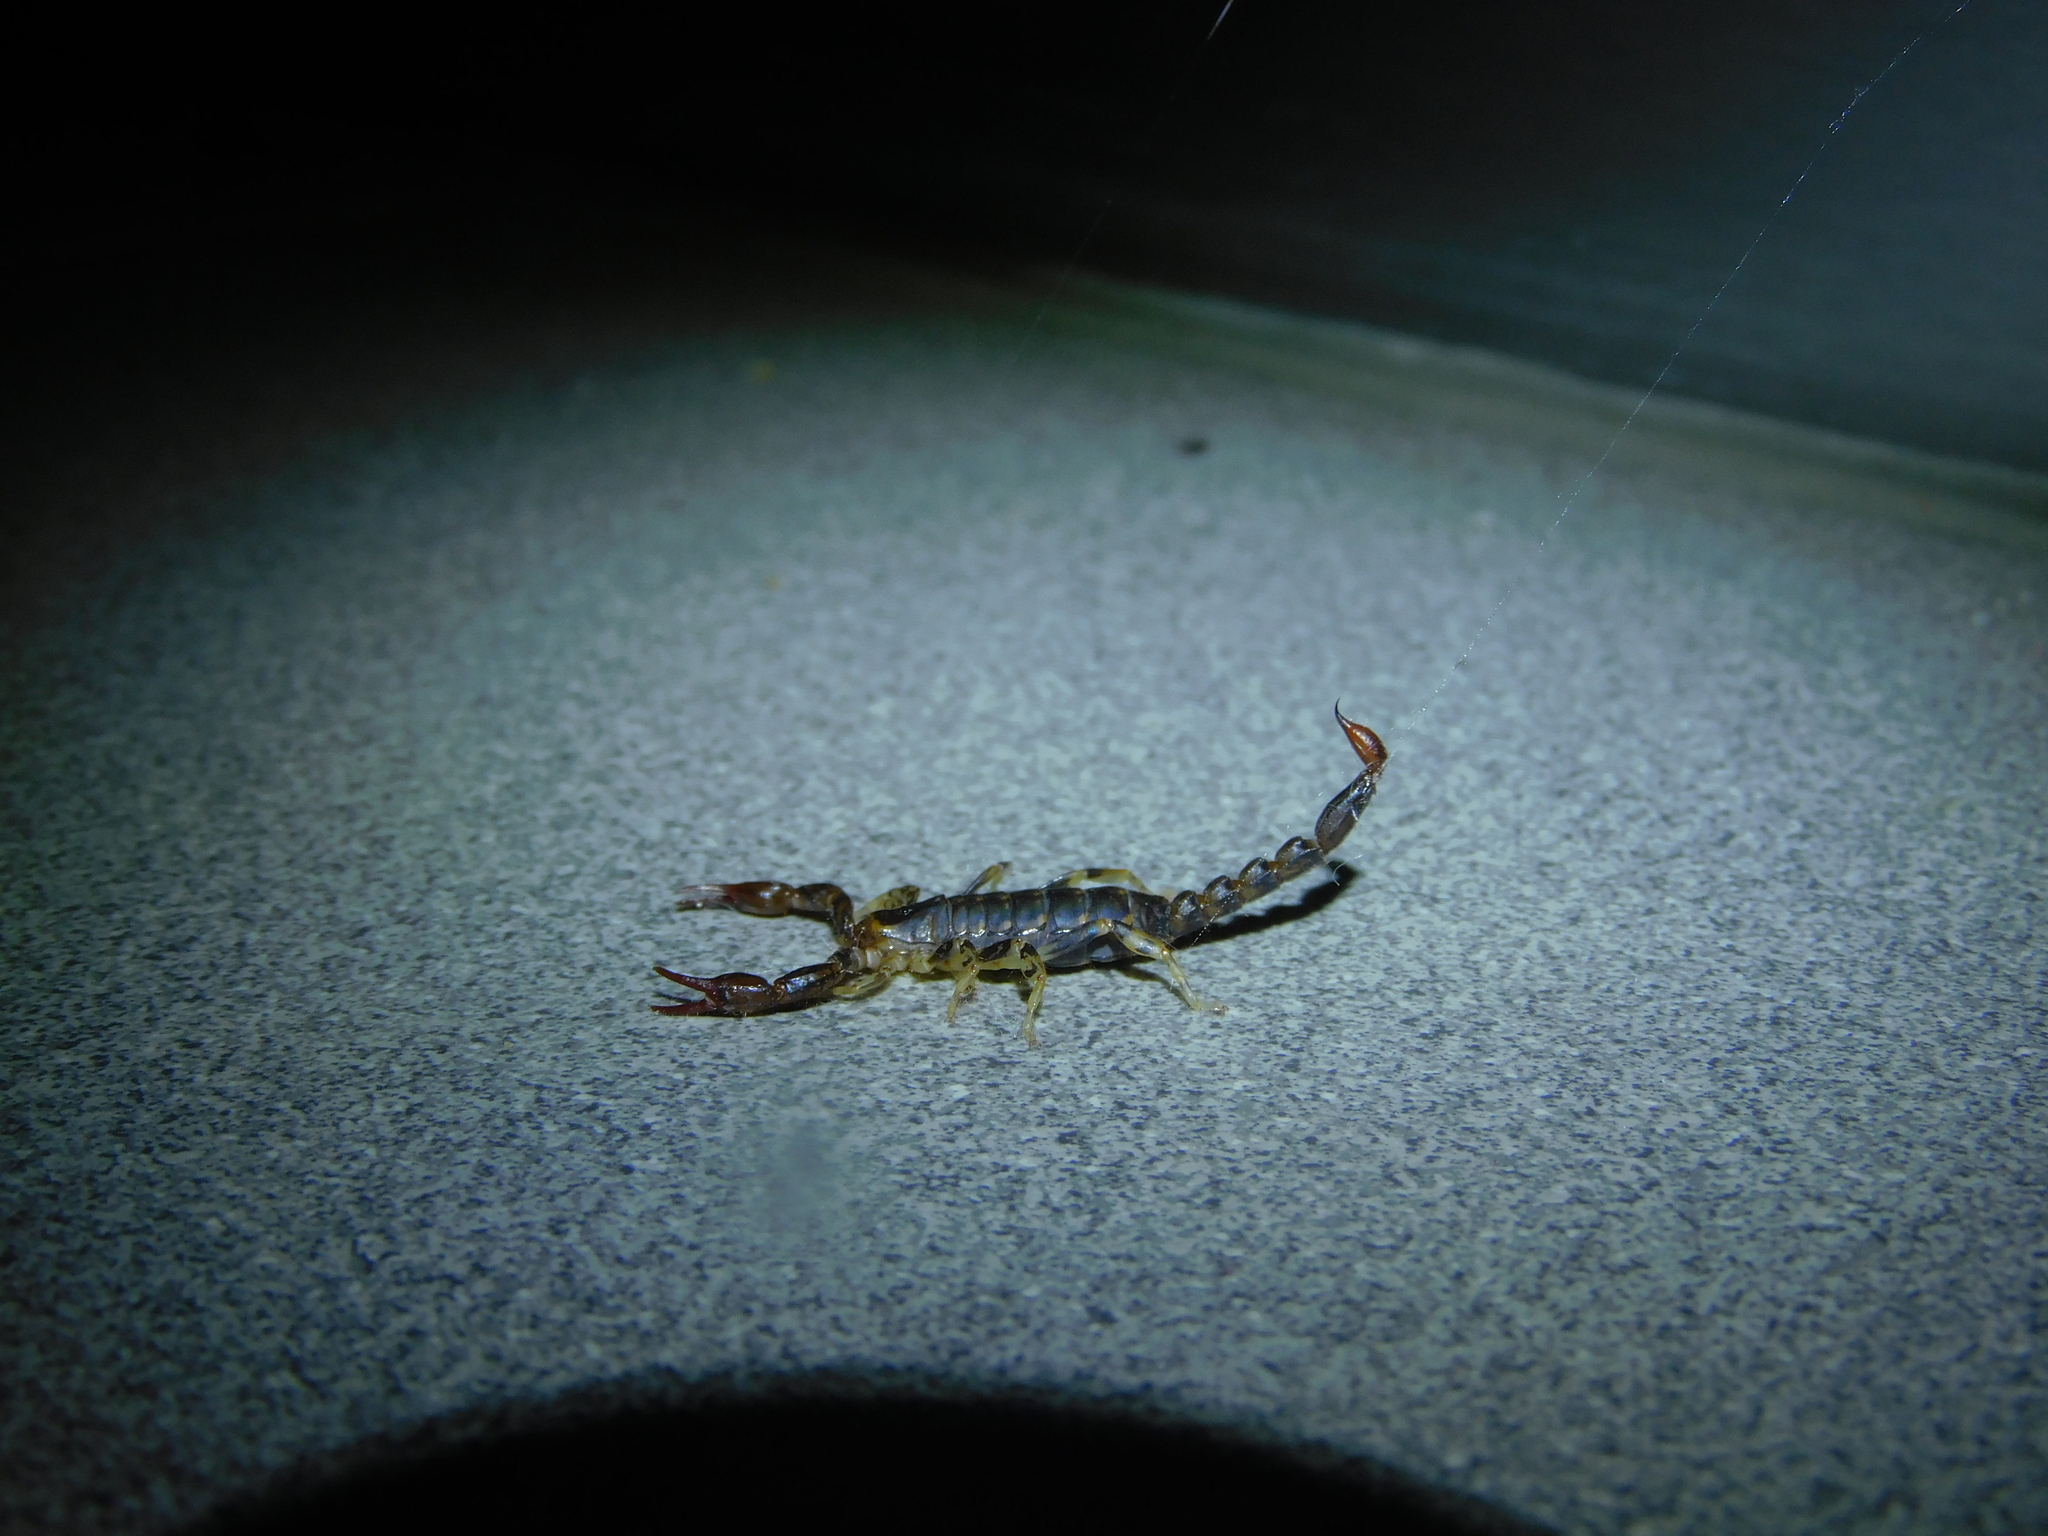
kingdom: Animalia
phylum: Arthropoda
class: Arachnida
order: Scorpiones
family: Bothriuridae
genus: Cercophonius
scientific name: Cercophonius squama
